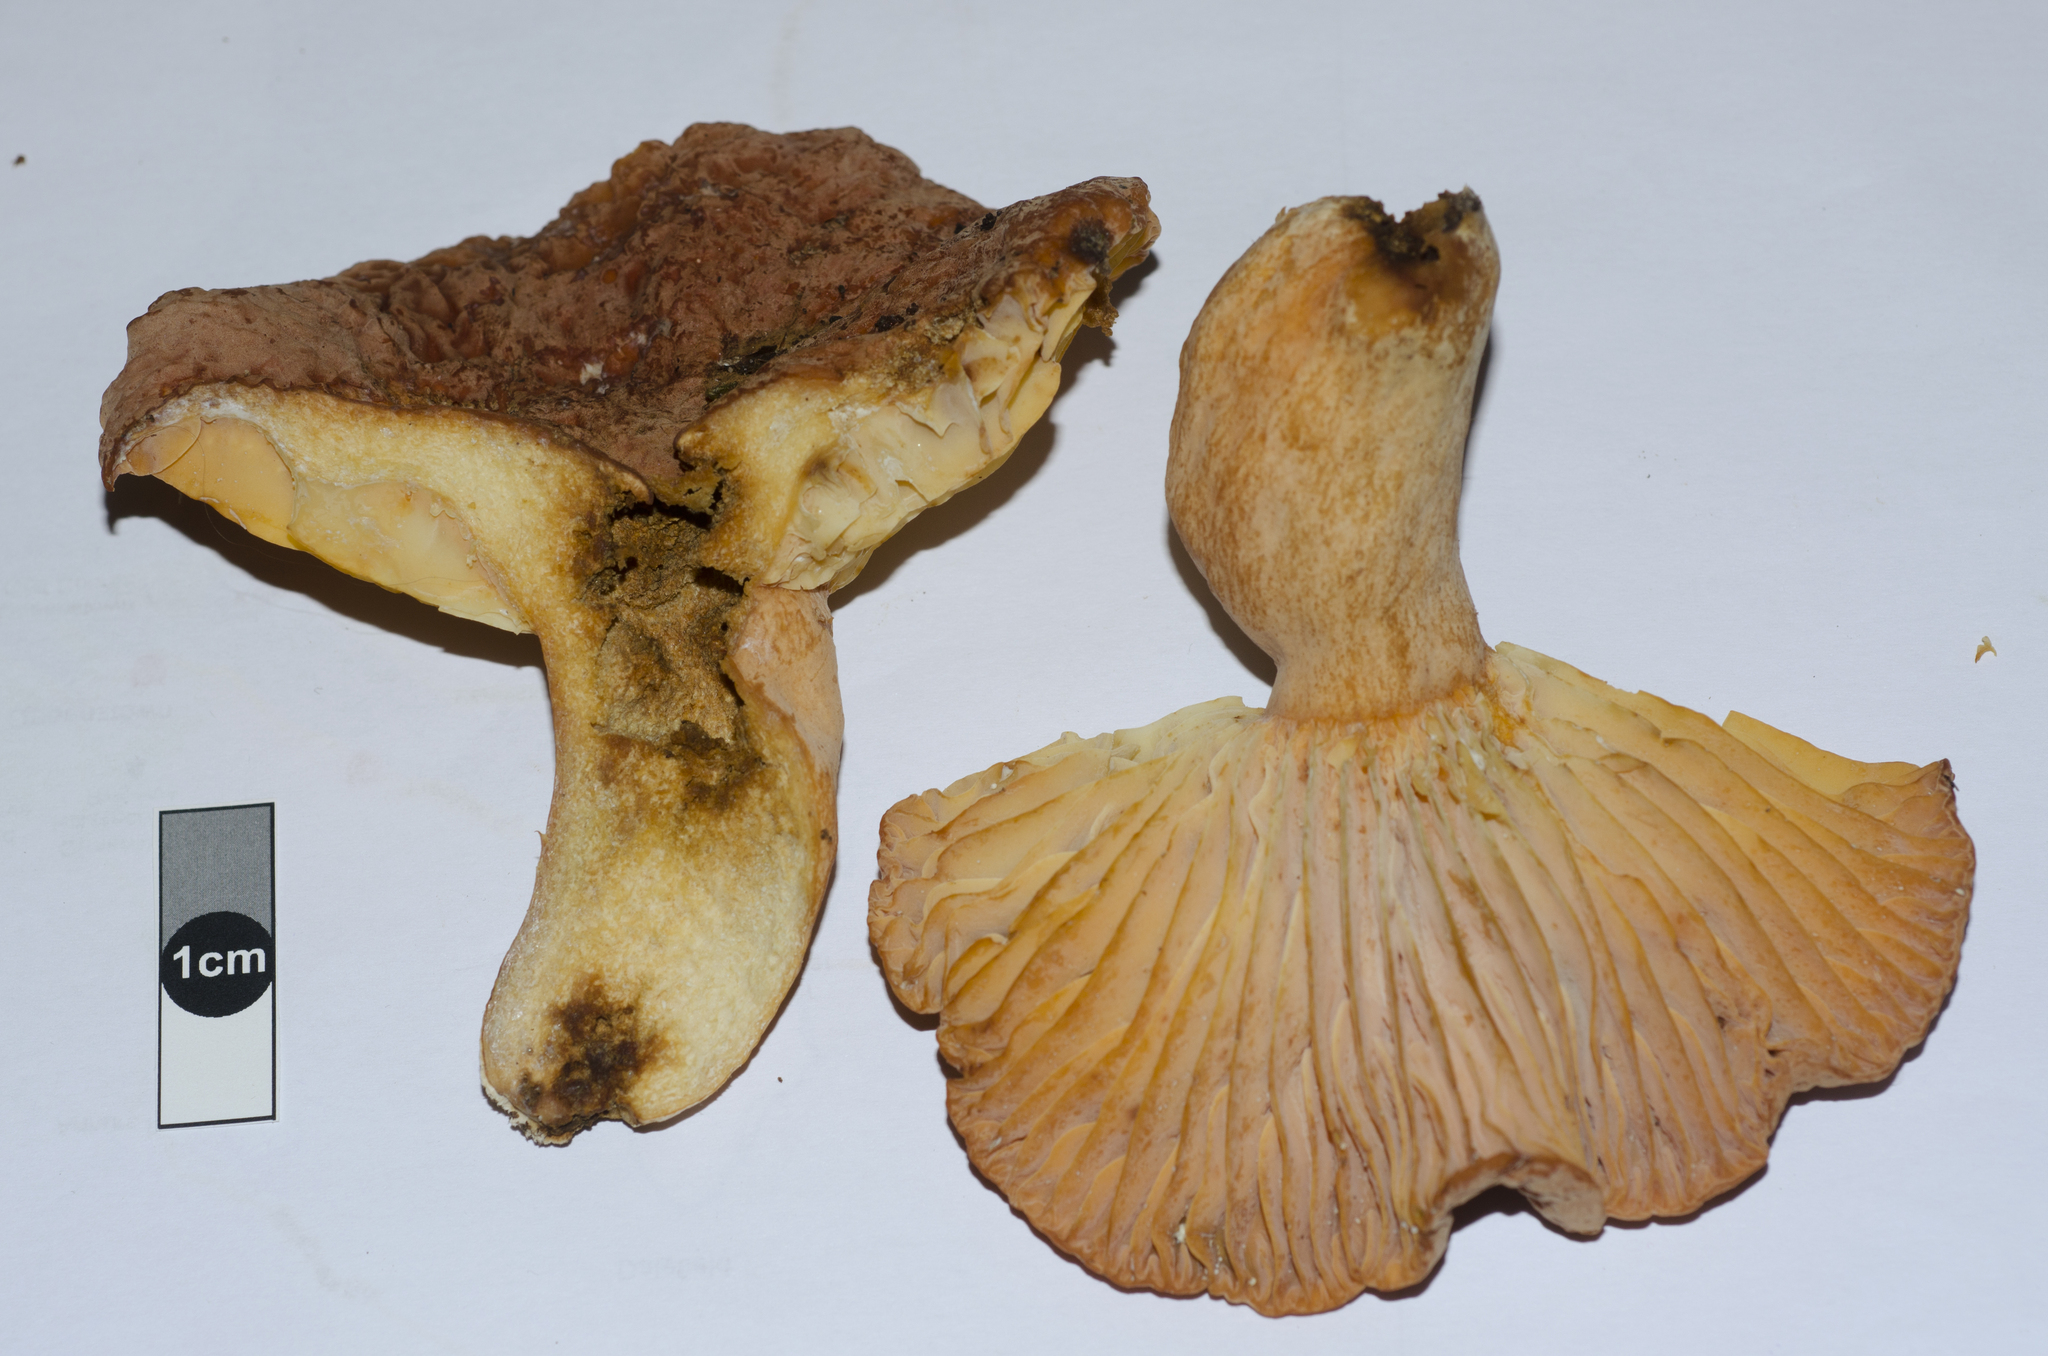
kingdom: Fungi
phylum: Basidiomycota
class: Agaricomycetes
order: Russulales
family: Russulaceae
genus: Lactifluus
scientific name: Lactifluus aurantioruber
